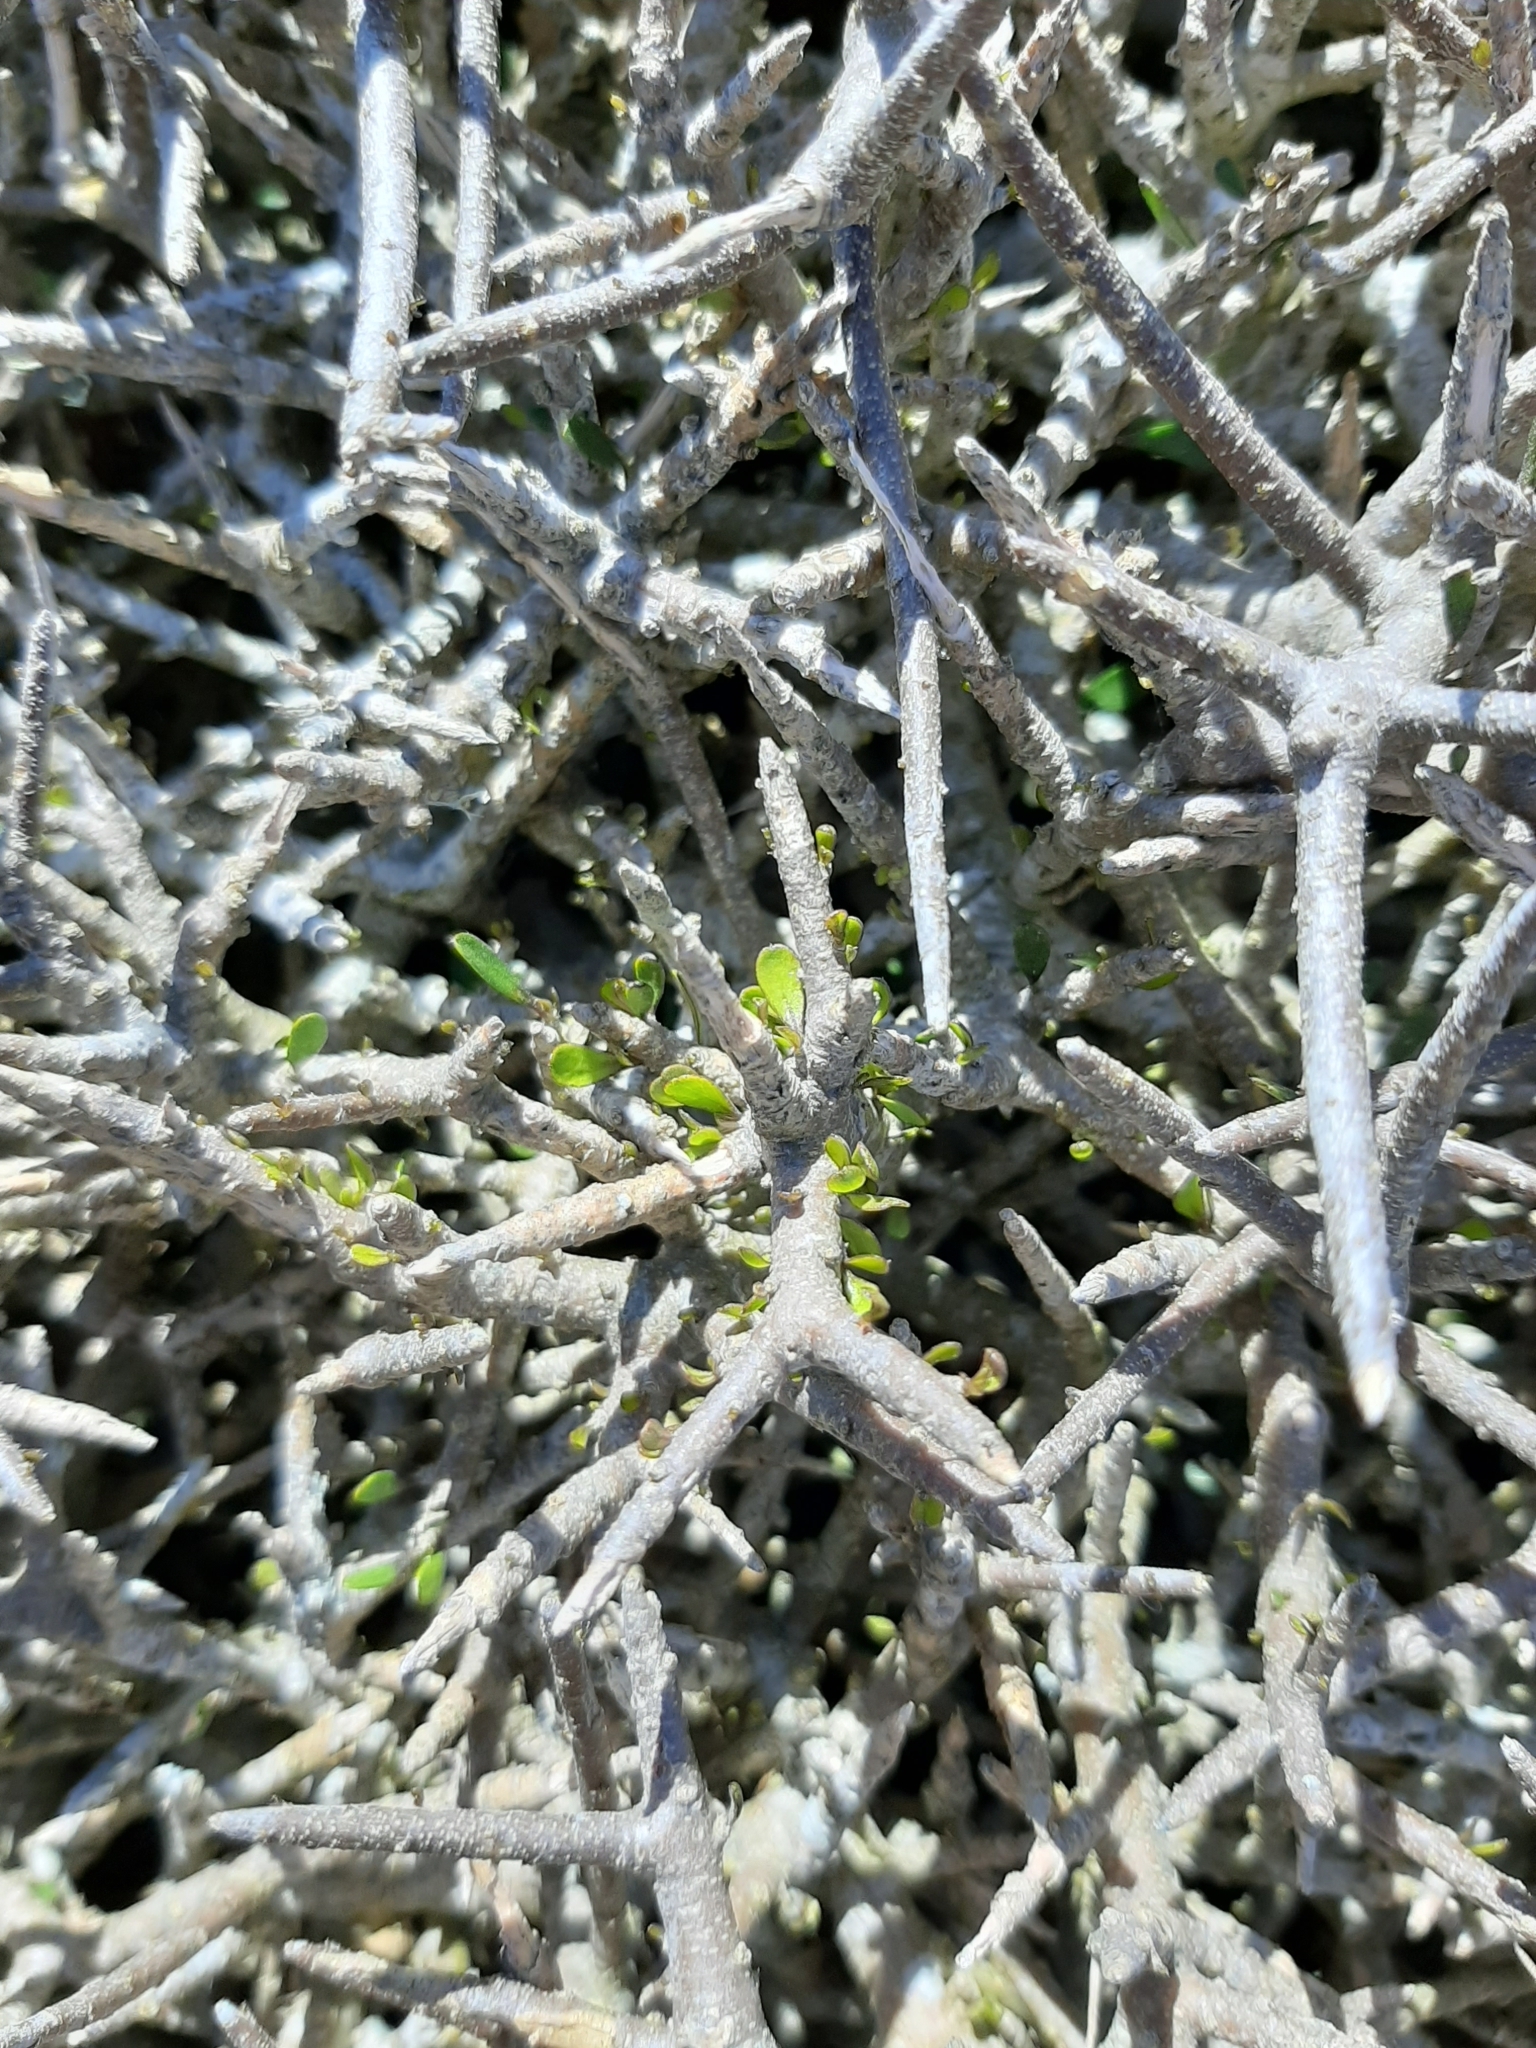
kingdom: Plantae
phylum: Tracheophyta
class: Magnoliopsida
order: Malpighiales
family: Violaceae
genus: Melicytus
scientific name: Melicytus alpinus
